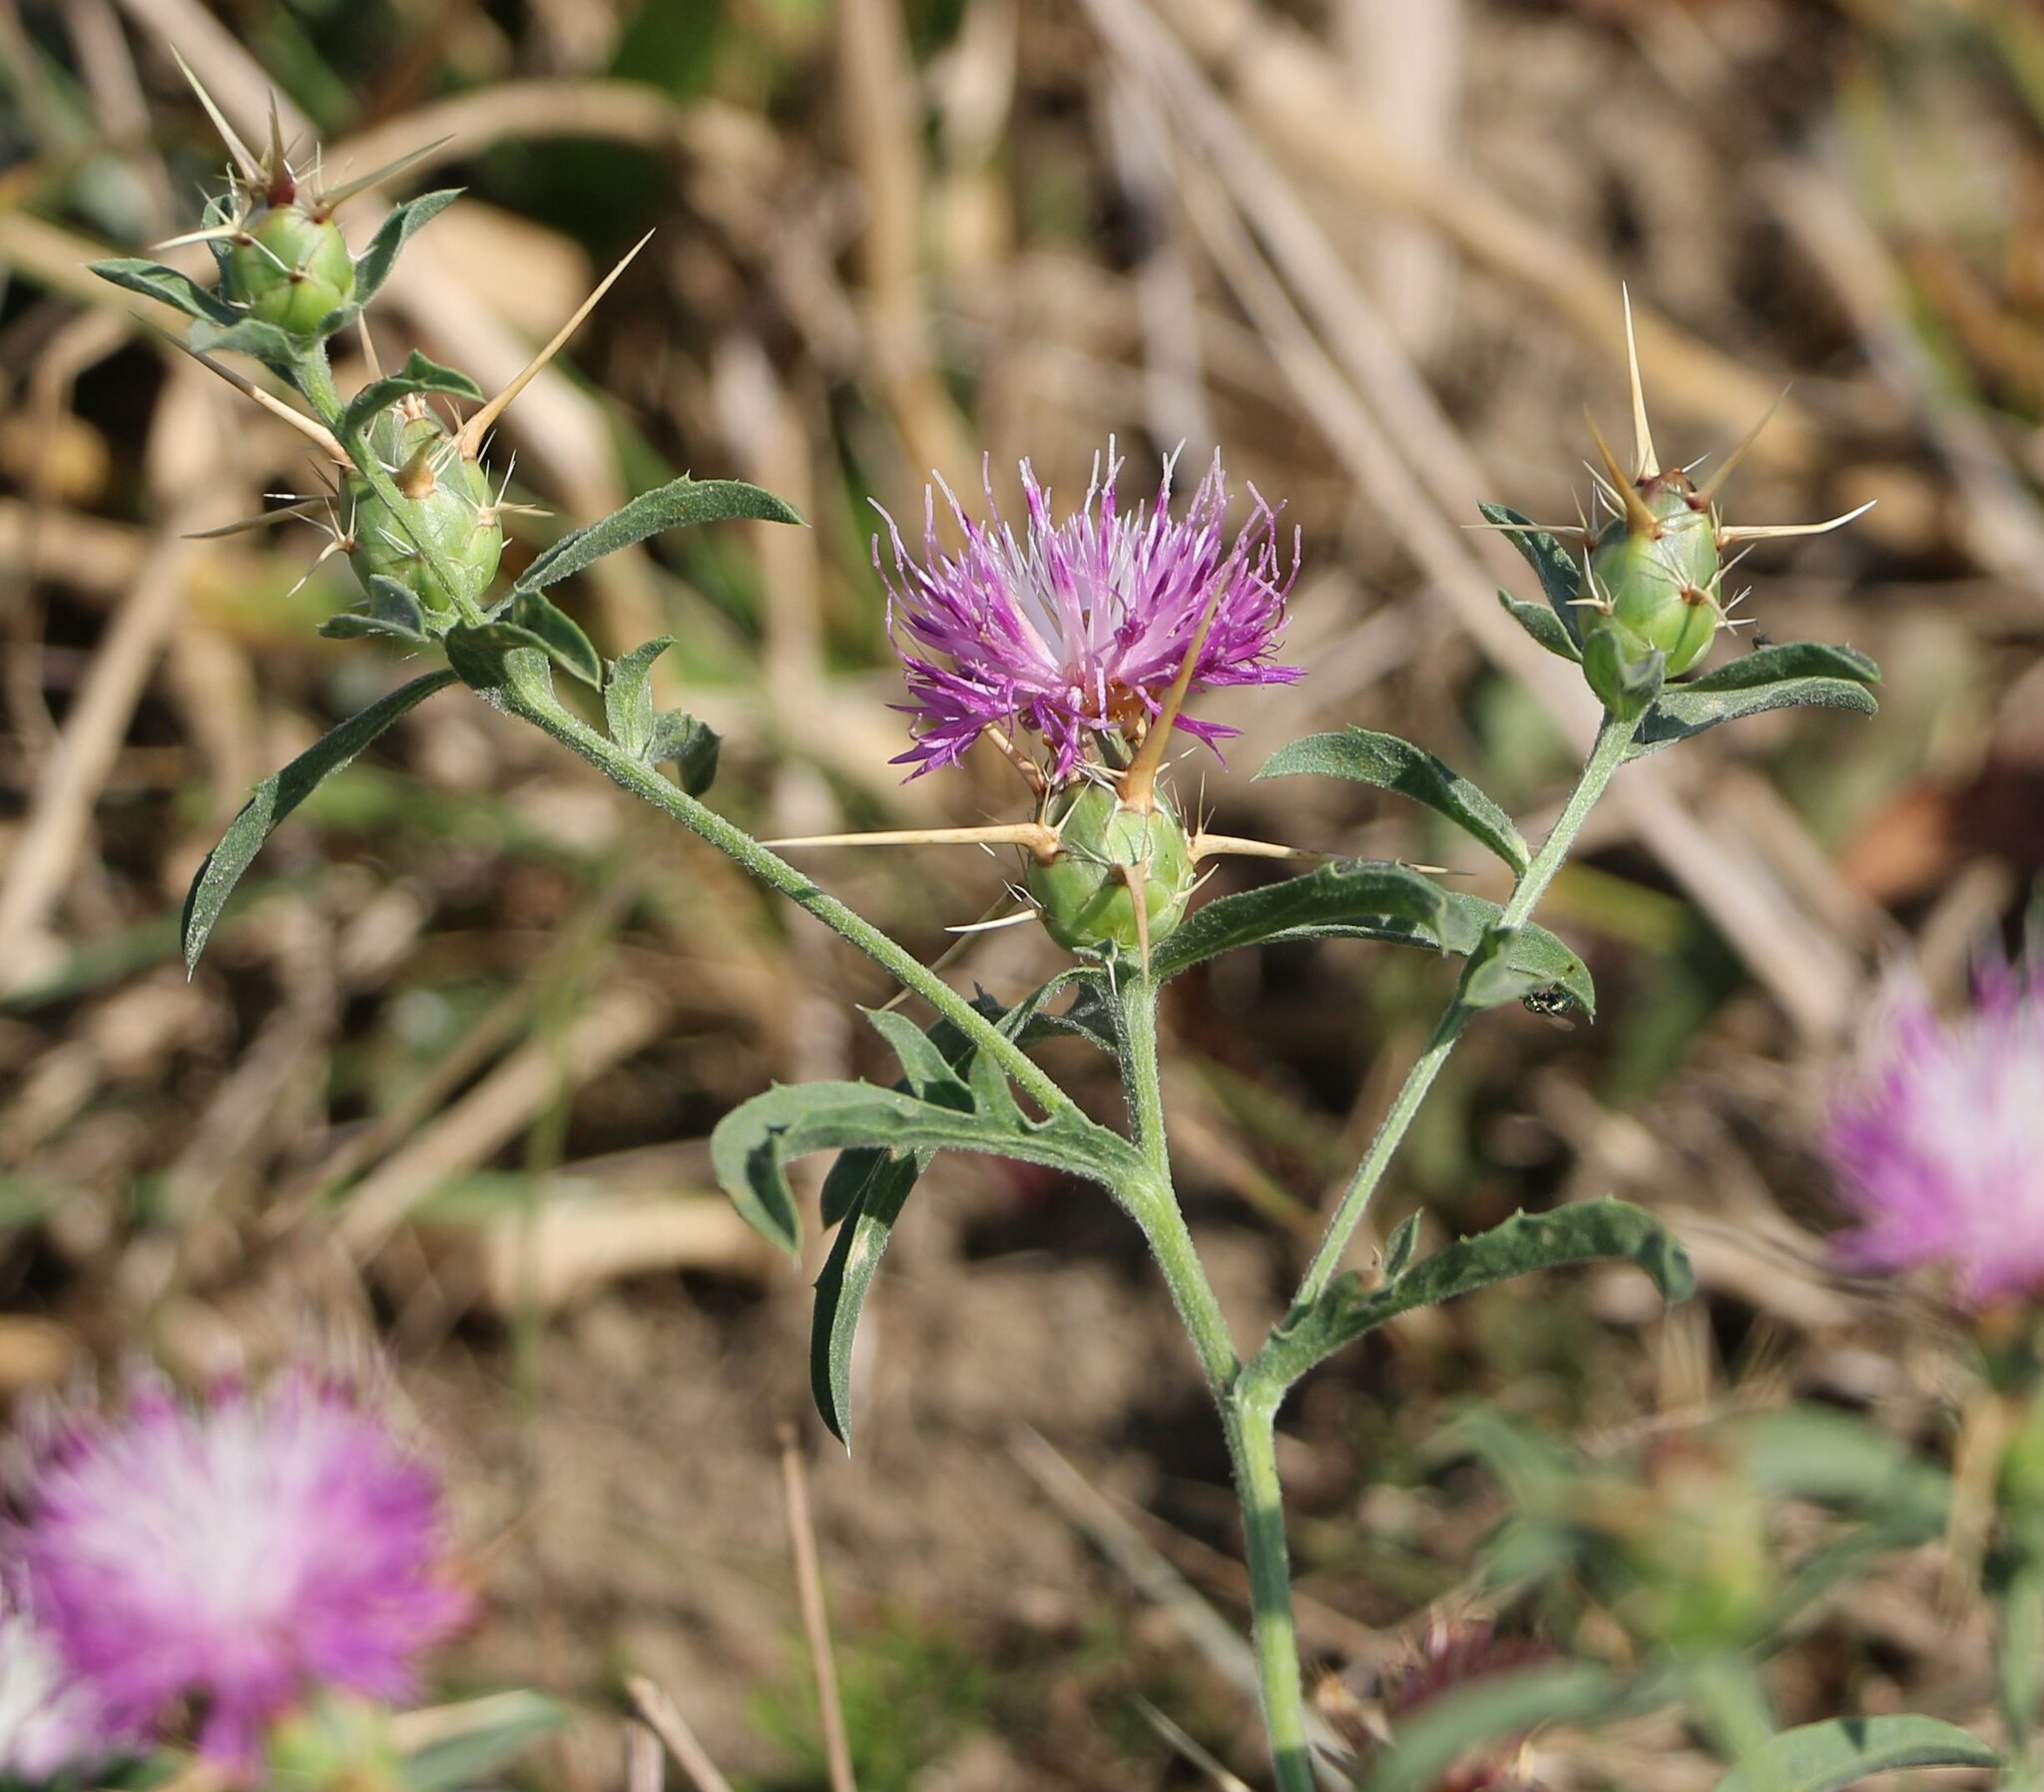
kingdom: Plantae
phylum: Tracheophyta
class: Magnoliopsida
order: Asterales
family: Asteraceae
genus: Centaurea
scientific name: Centaurea iberica
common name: Iberian knapweed
